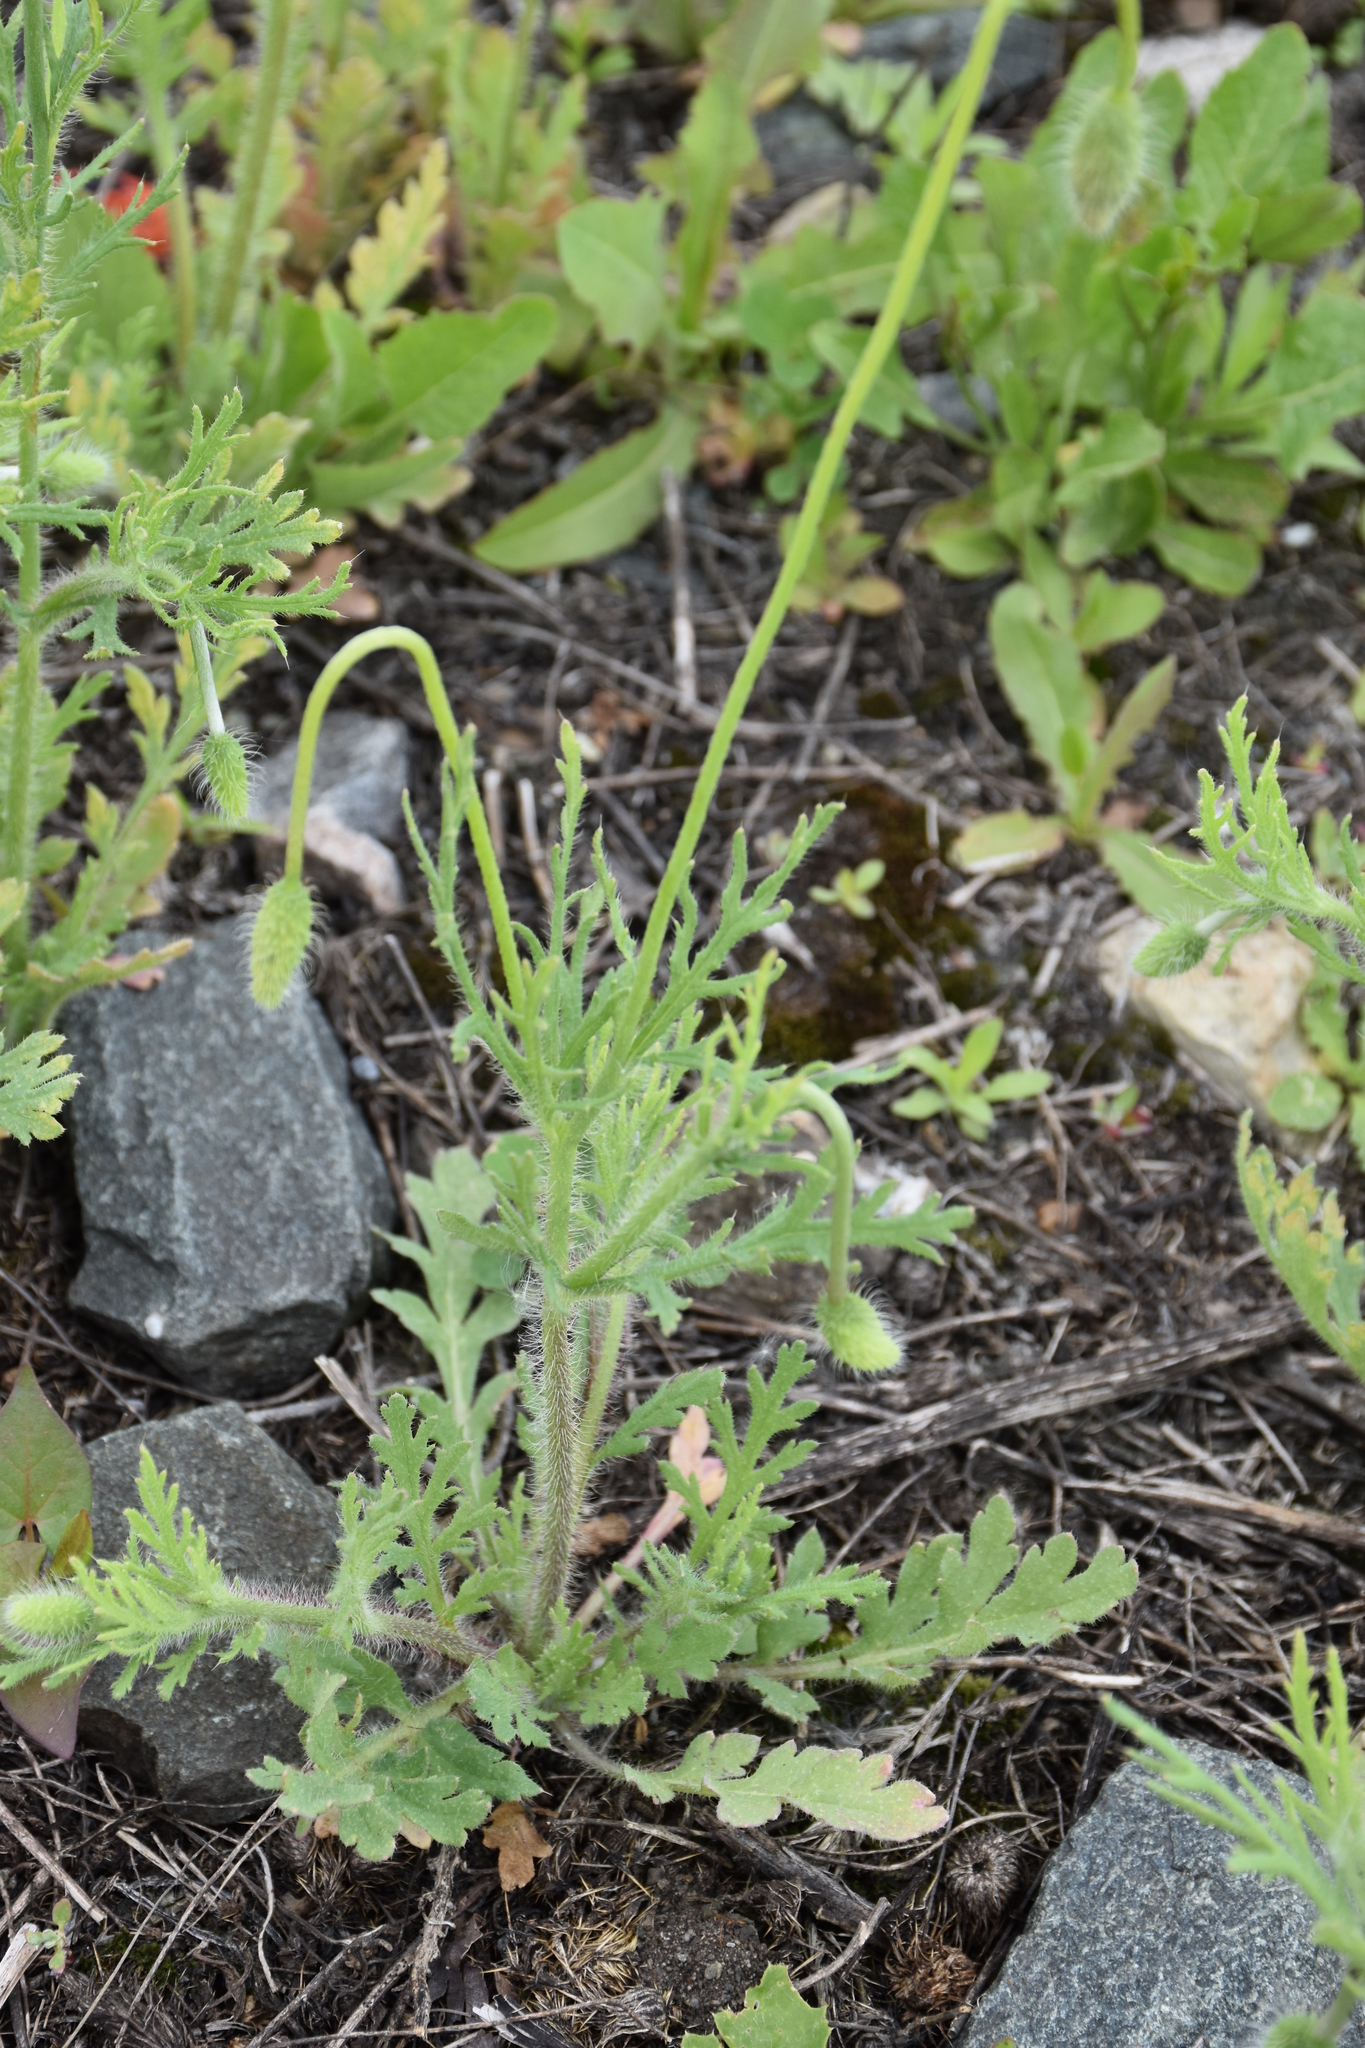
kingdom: Plantae
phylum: Tracheophyta
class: Magnoliopsida
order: Ranunculales
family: Papaveraceae
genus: Papaver
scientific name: Papaver dubium
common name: Long-headed poppy
